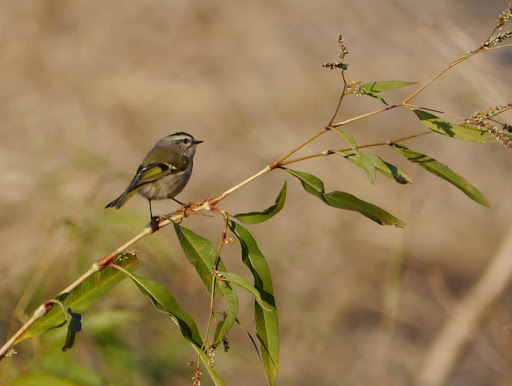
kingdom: Animalia
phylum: Chordata
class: Aves
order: Passeriformes
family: Regulidae
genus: Regulus
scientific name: Regulus satrapa
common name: Golden-crowned kinglet
